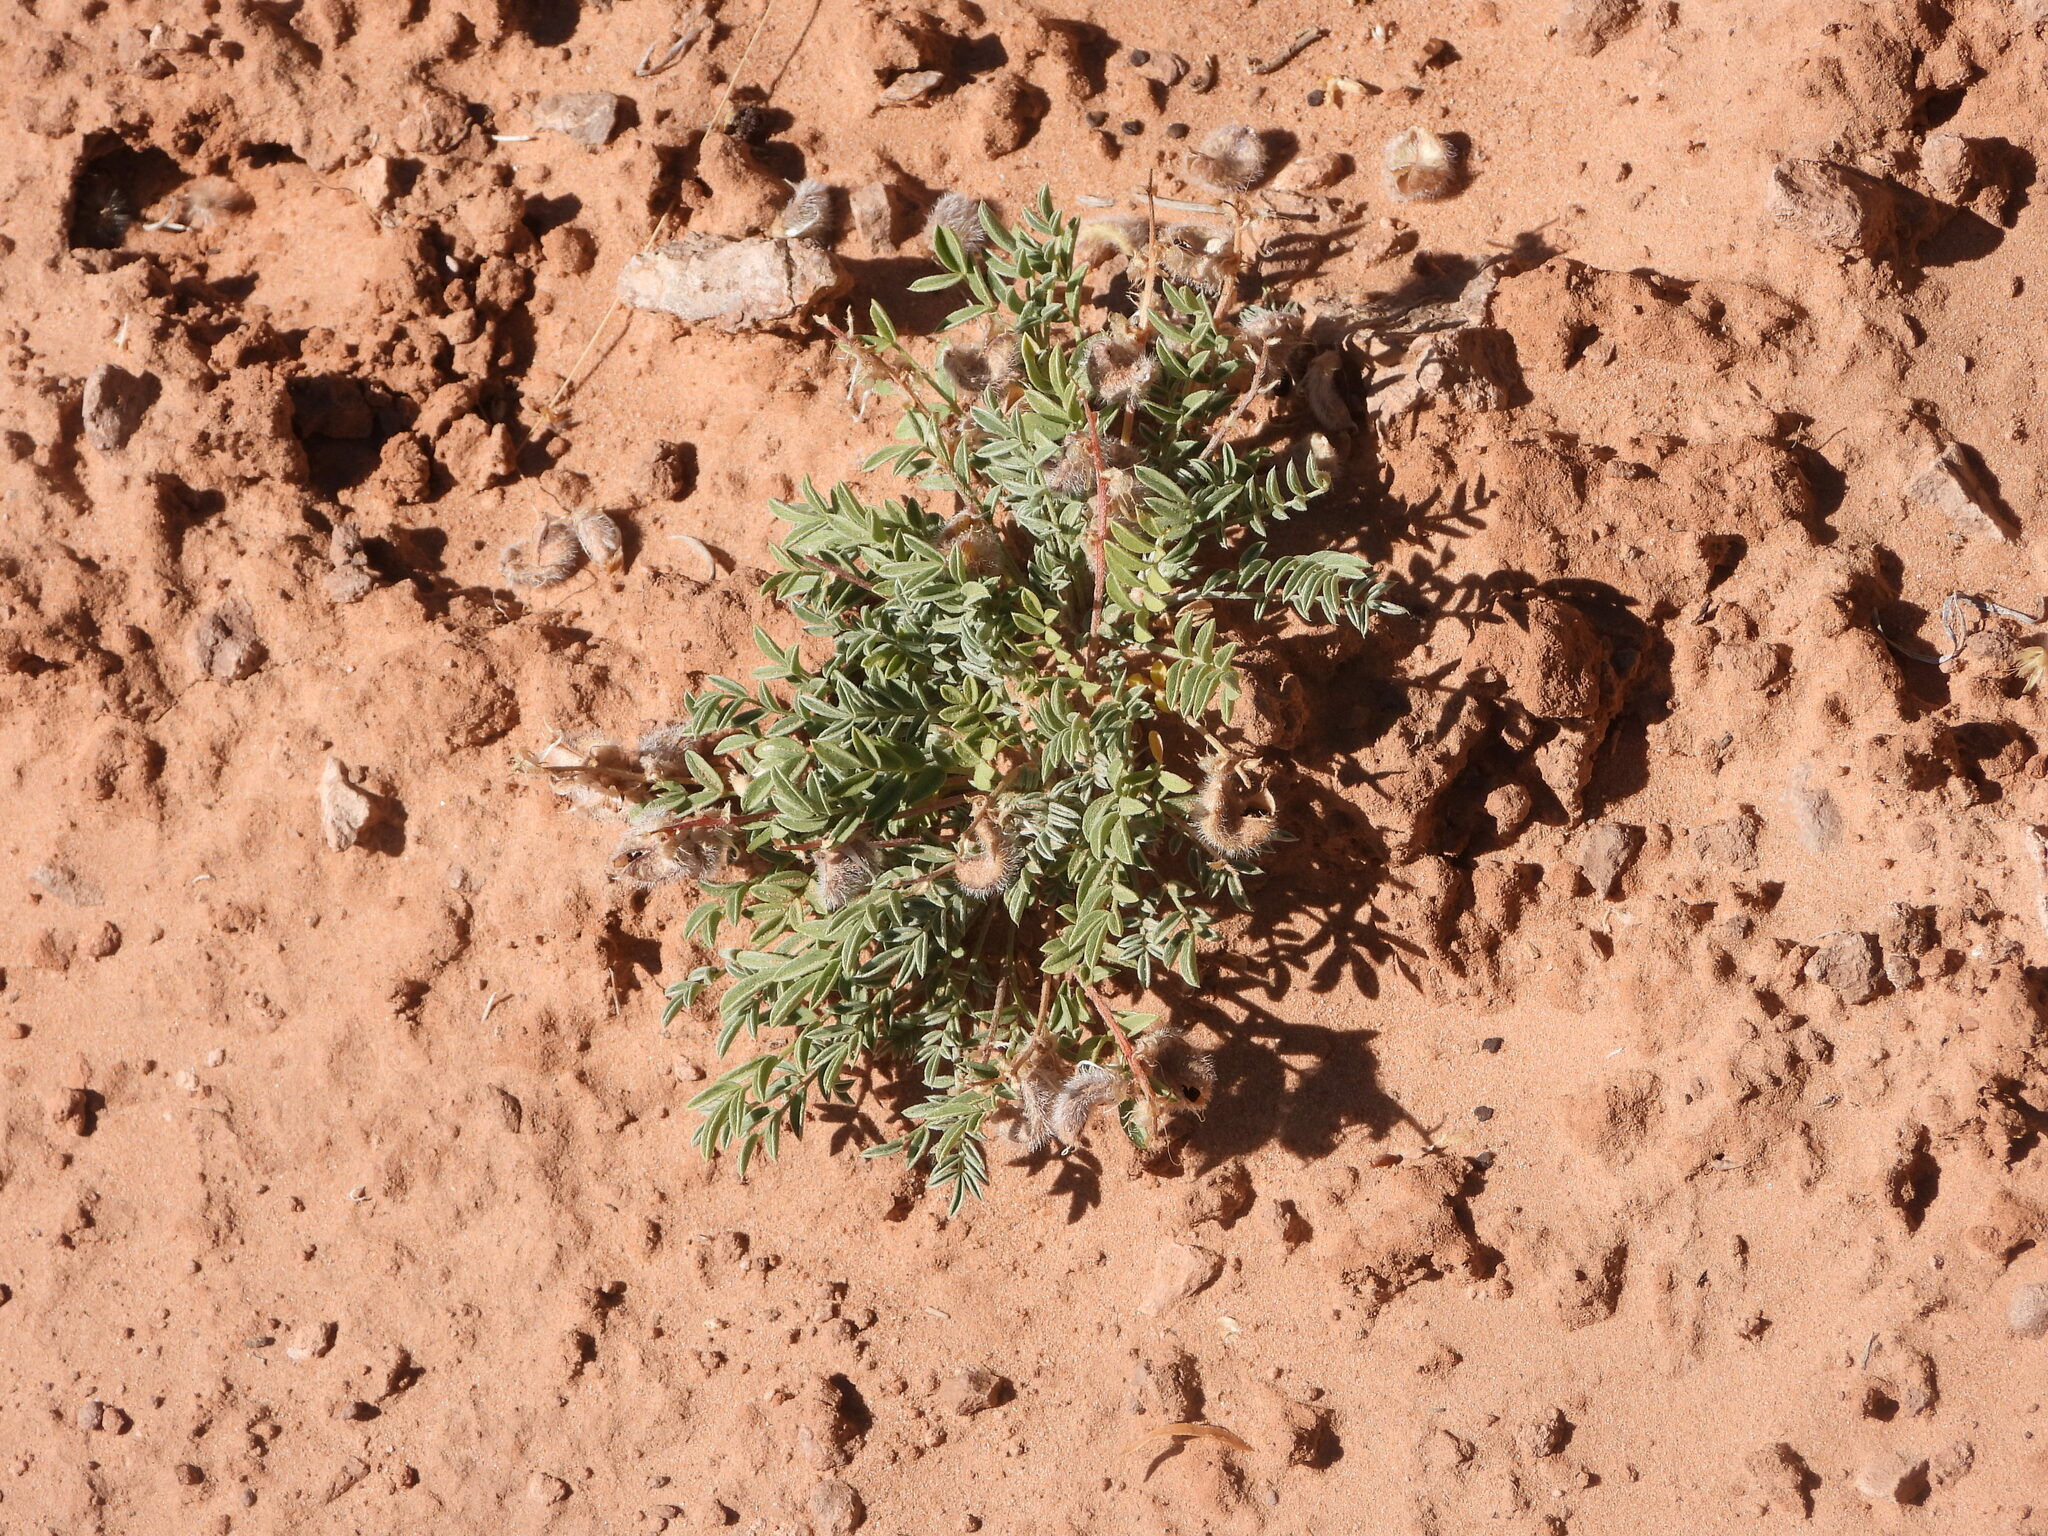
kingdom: Plantae
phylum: Tracheophyta
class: Magnoliopsida
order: Fabales
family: Fabaceae
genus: Astragalus
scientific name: Astragalus desperatus
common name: Rimrock milk-vetch
